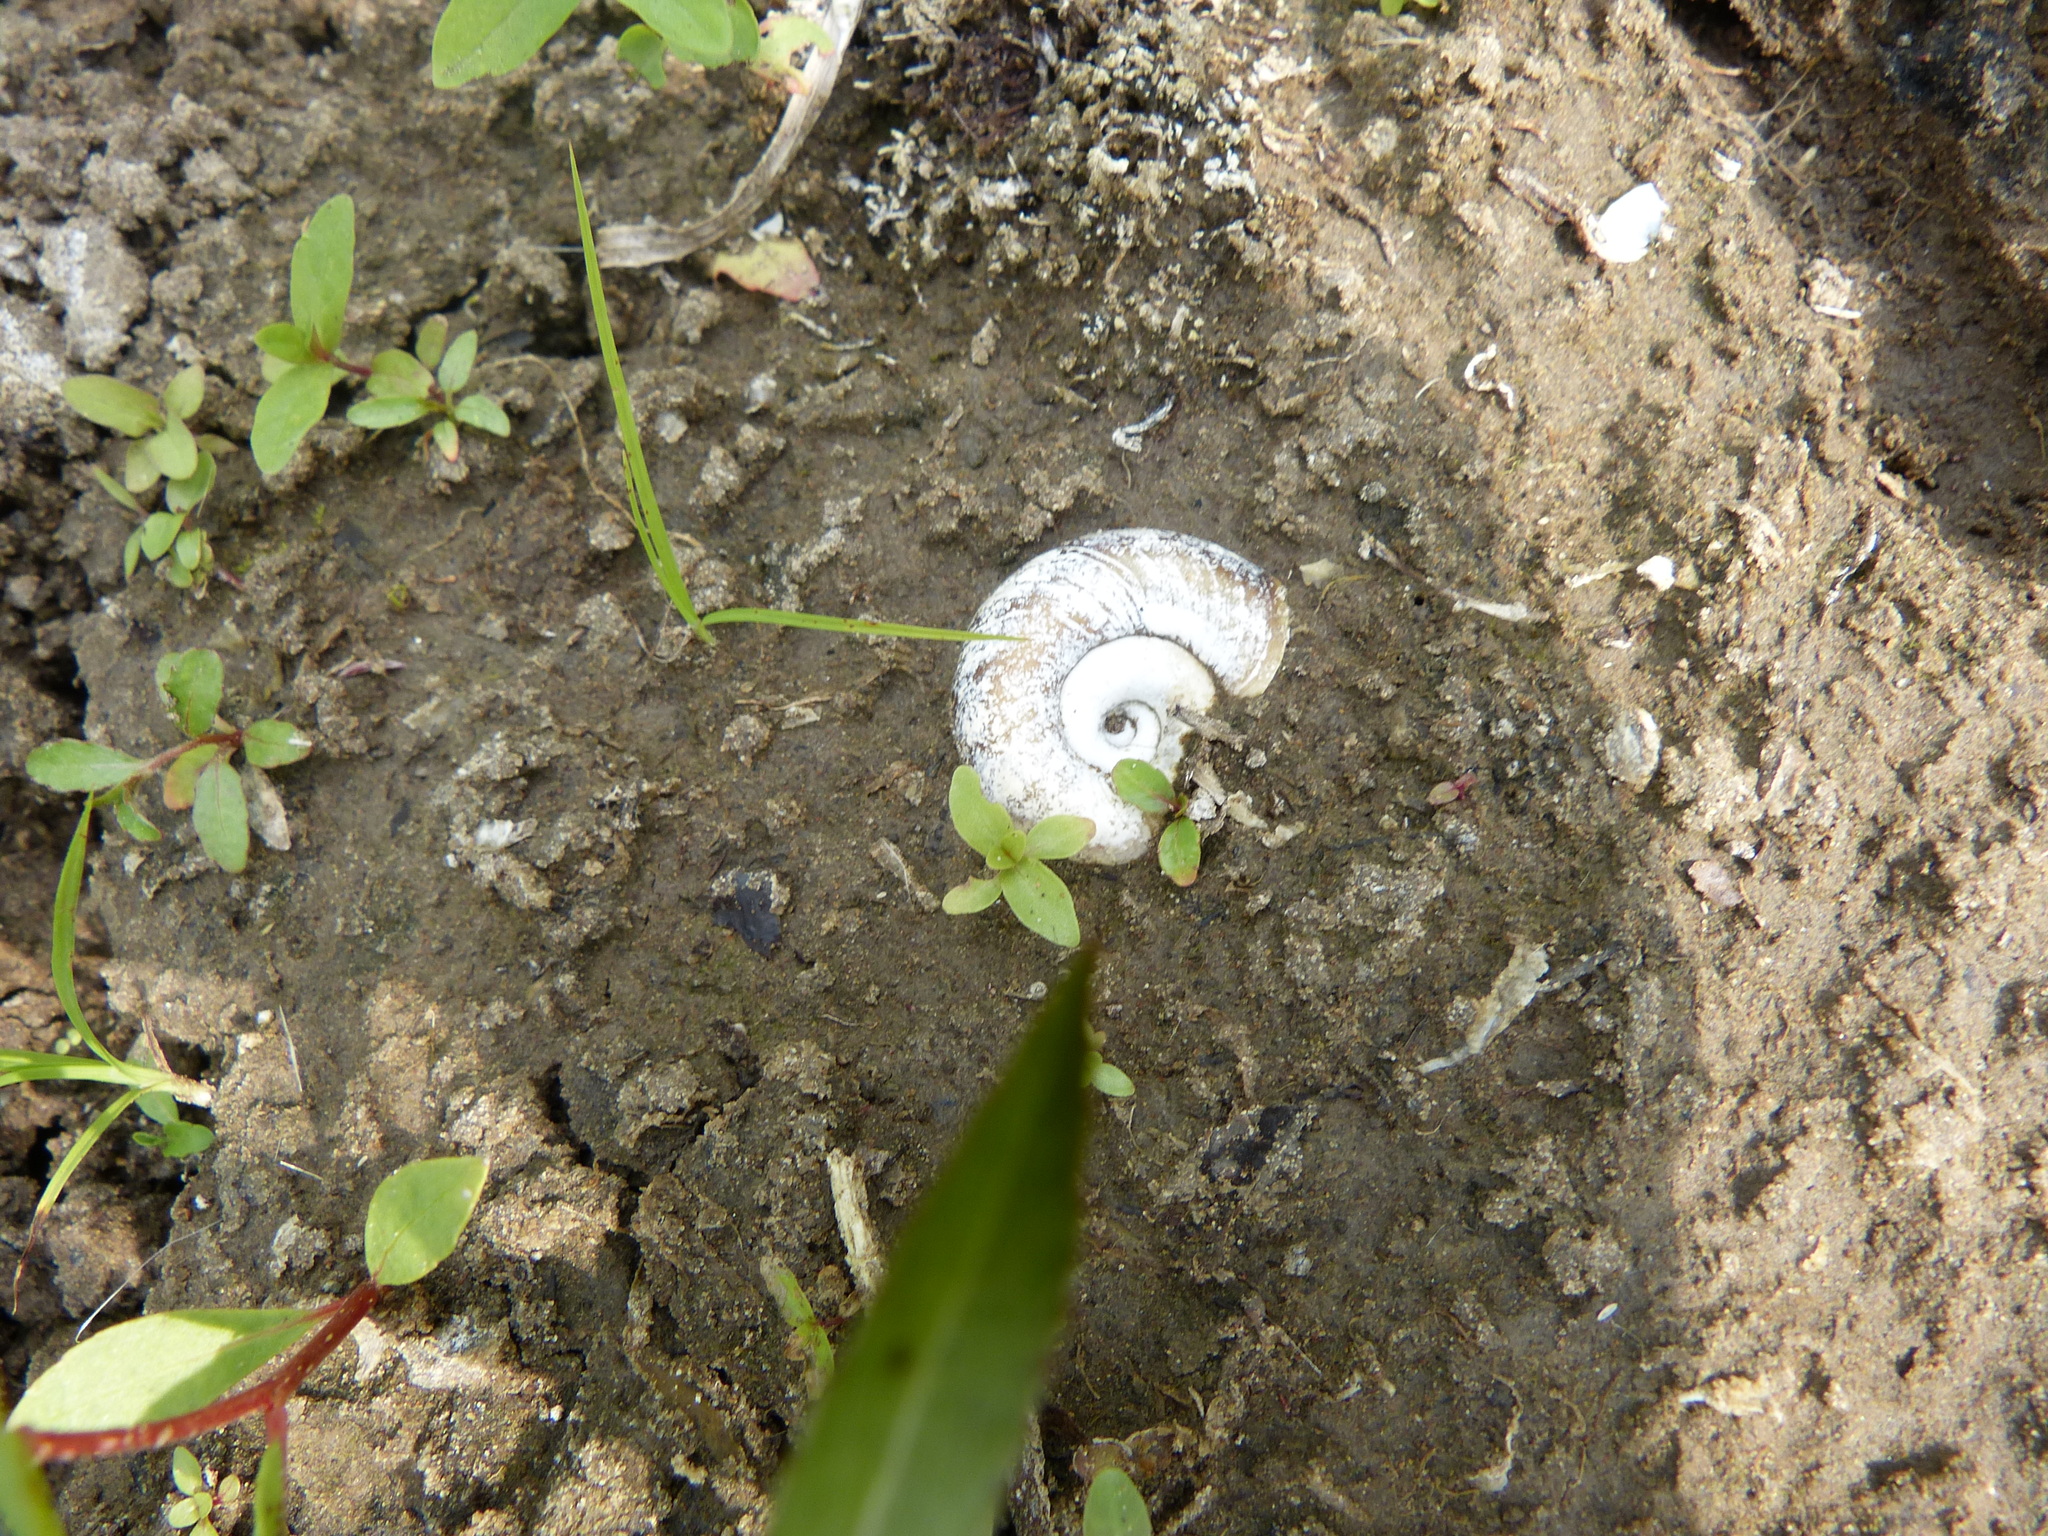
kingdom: Animalia
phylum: Mollusca
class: Gastropoda
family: Planorbidae
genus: Planorbarius
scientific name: Planorbarius corneus
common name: Great ramshorn
